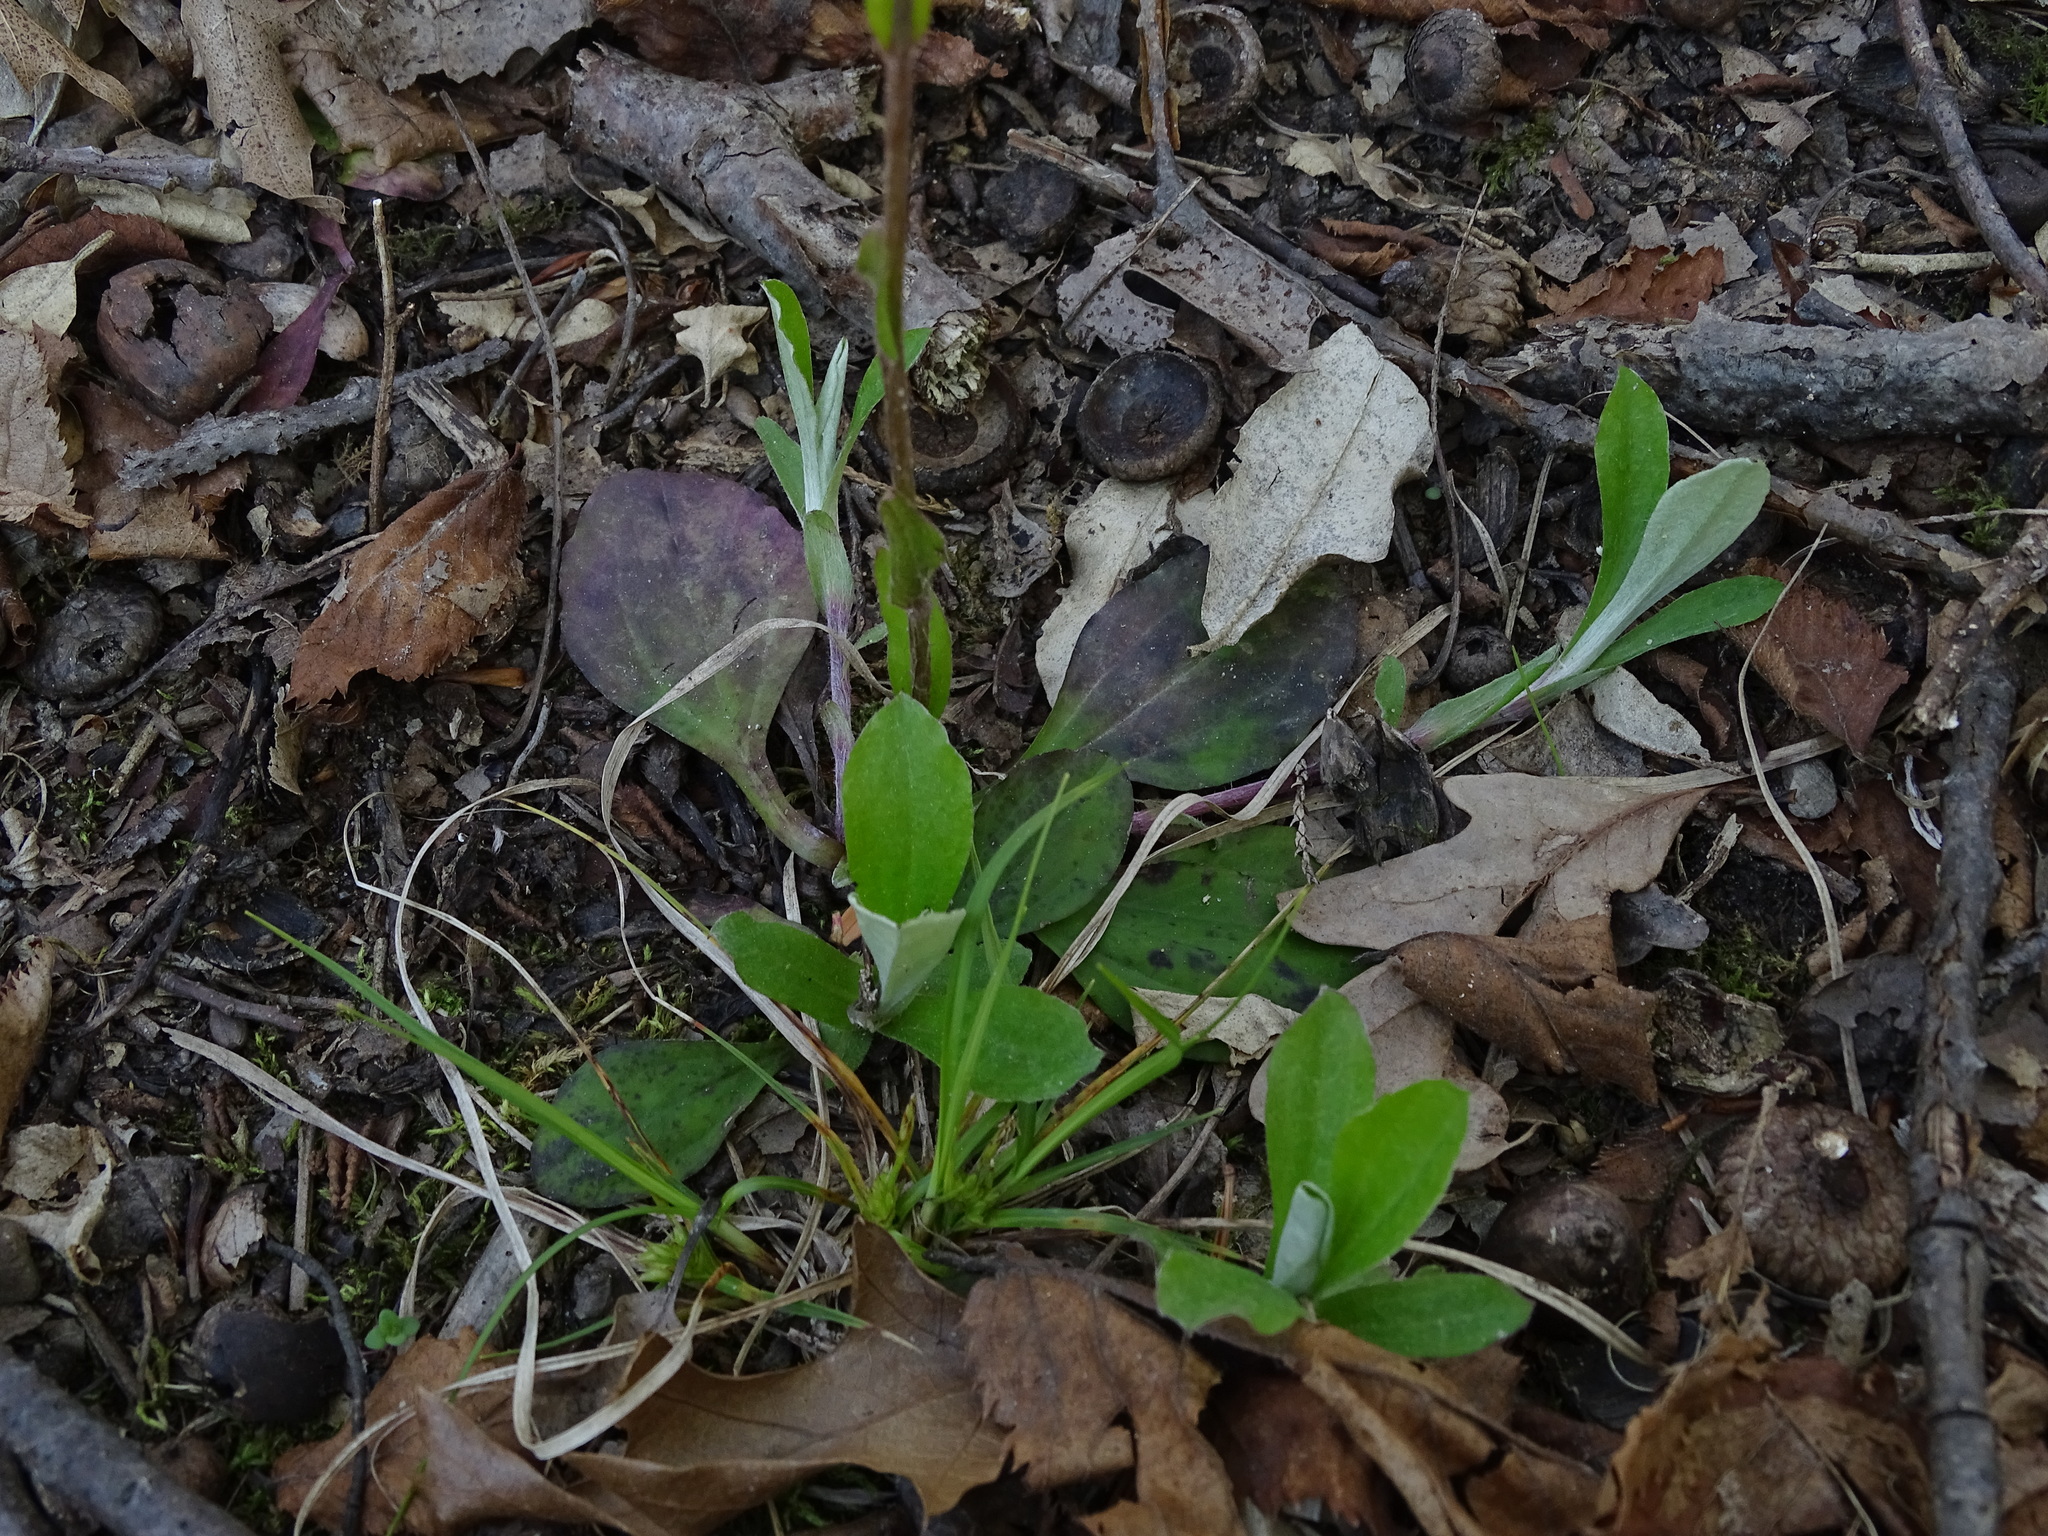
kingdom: Plantae
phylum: Tracheophyta
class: Magnoliopsida
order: Asterales
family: Asteraceae
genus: Antennaria
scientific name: Antennaria parlinii
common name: Parlin's pussytoes
